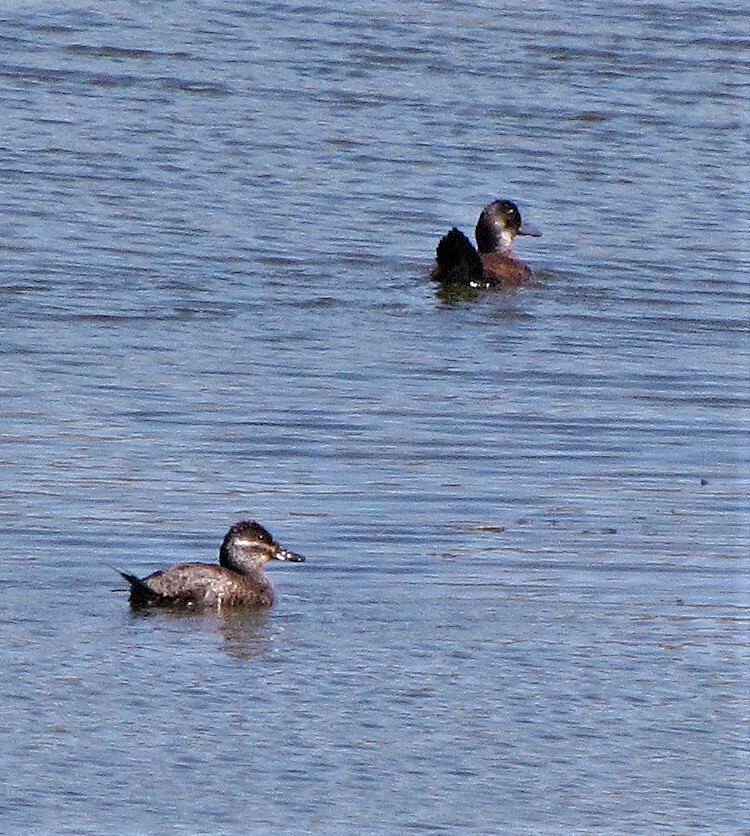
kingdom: Animalia
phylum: Chordata
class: Aves
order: Anseriformes
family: Anatidae
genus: Oxyura
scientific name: Oxyura vittata
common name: Lake duck
